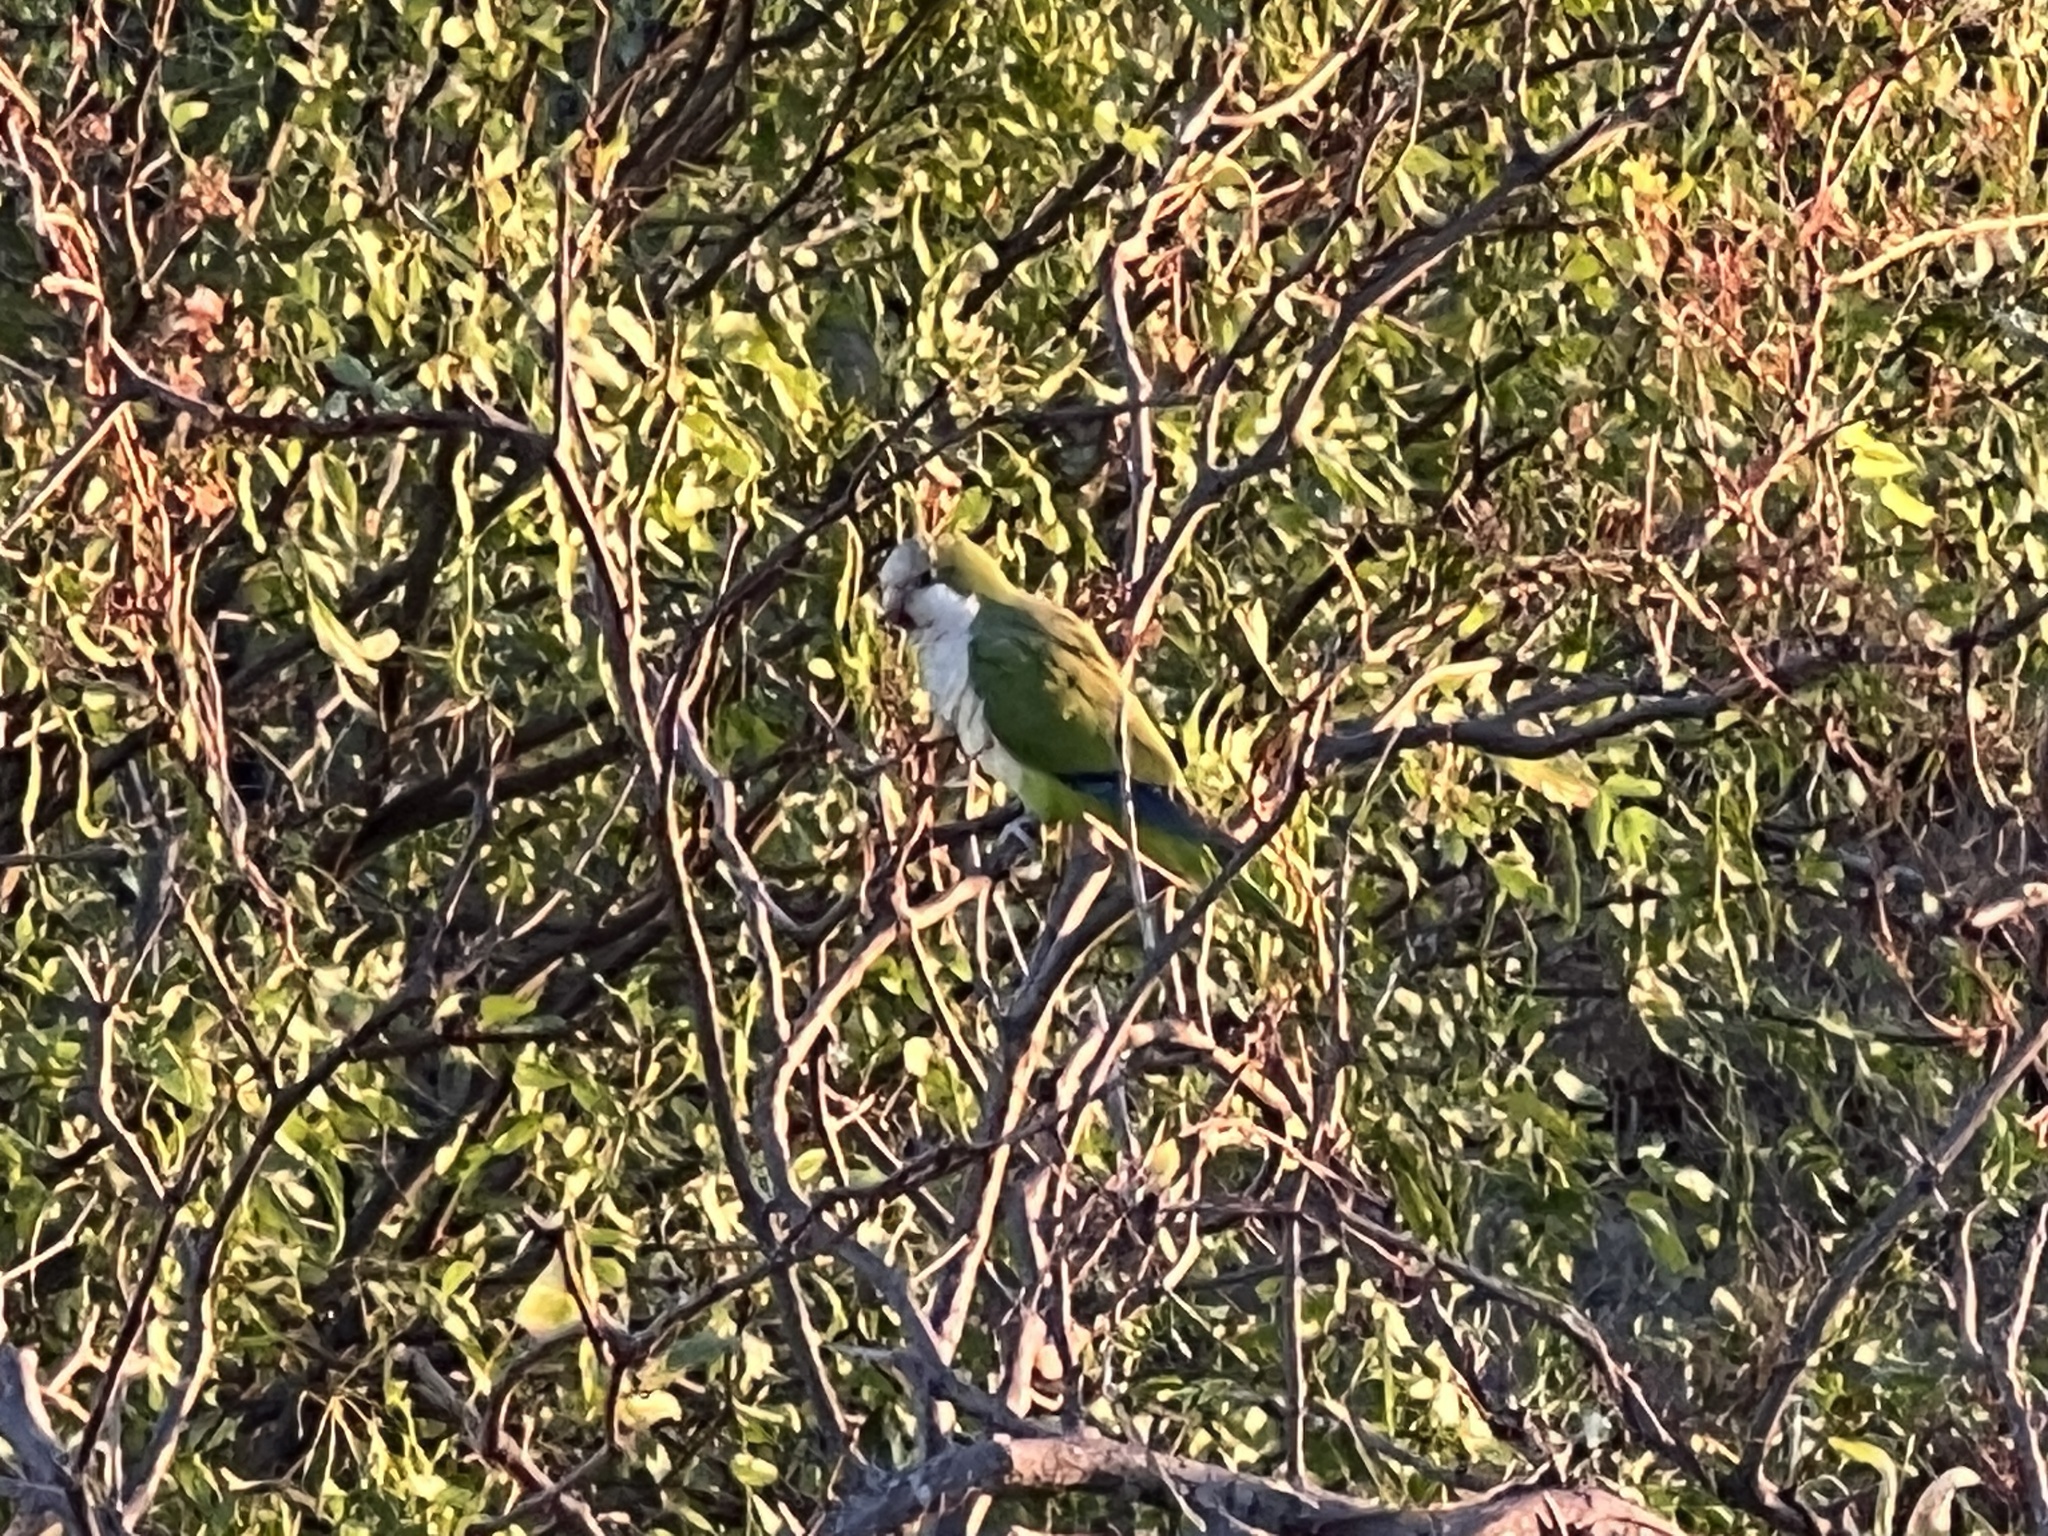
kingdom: Animalia
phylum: Chordata
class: Aves
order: Psittaciformes
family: Psittacidae
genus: Myiopsitta
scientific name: Myiopsitta monachus
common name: Monk parakeet
